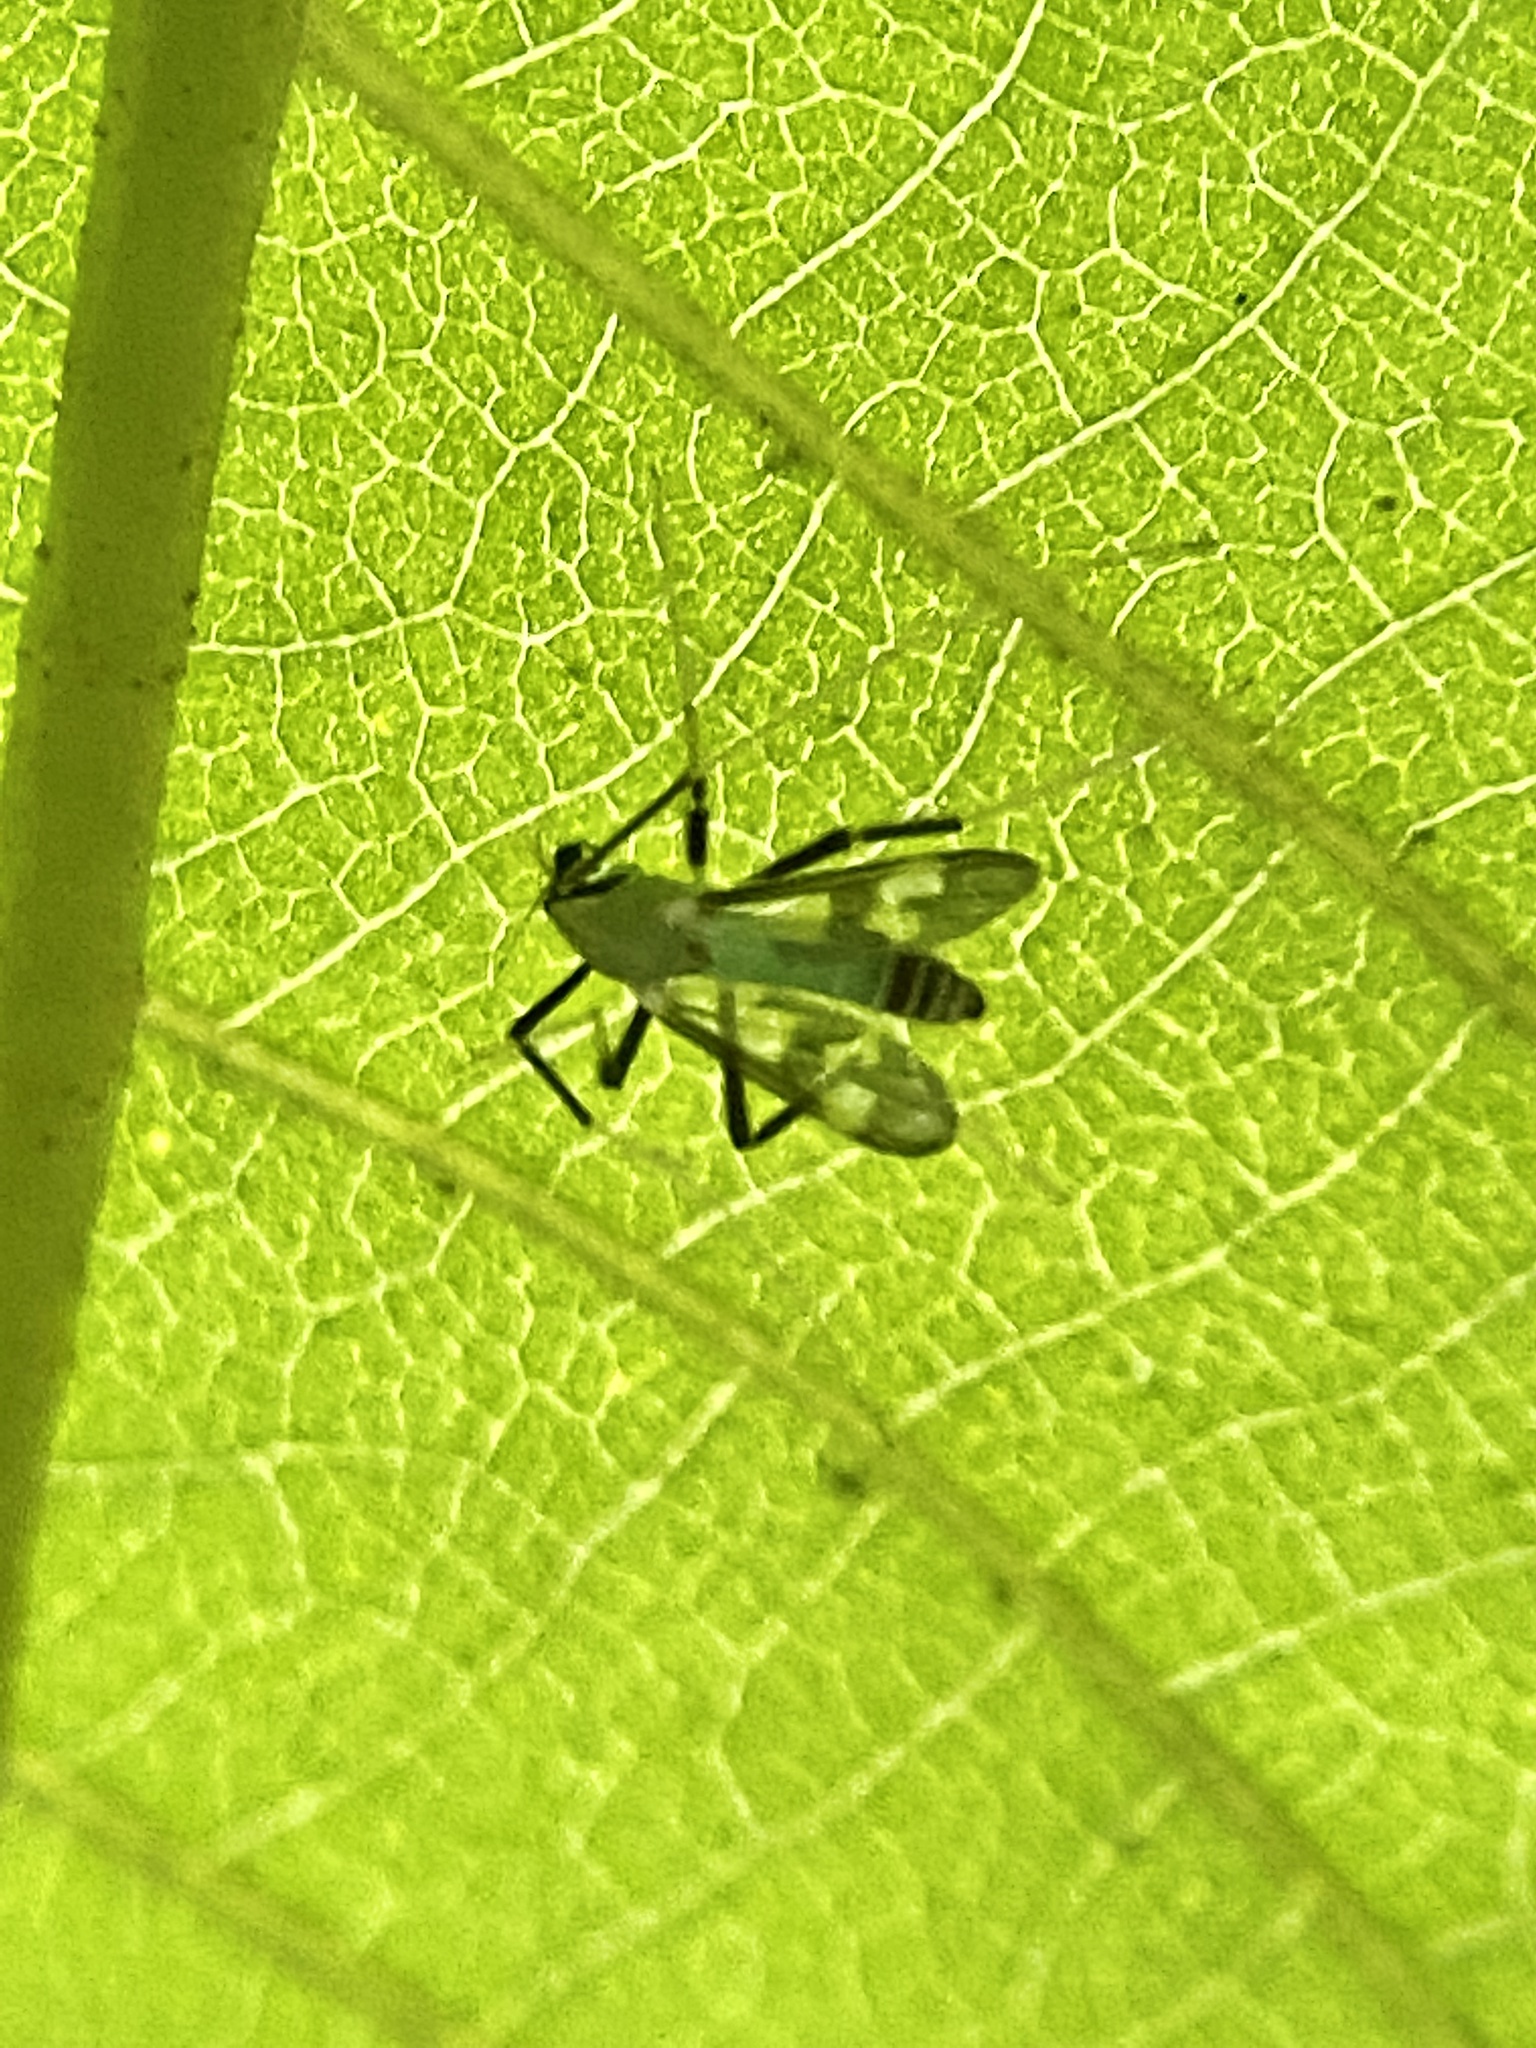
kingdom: Animalia
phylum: Arthropoda
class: Insecta
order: Diptera
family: Chironomidae
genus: Stenochironomus
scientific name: Stenochironomus hilaris
